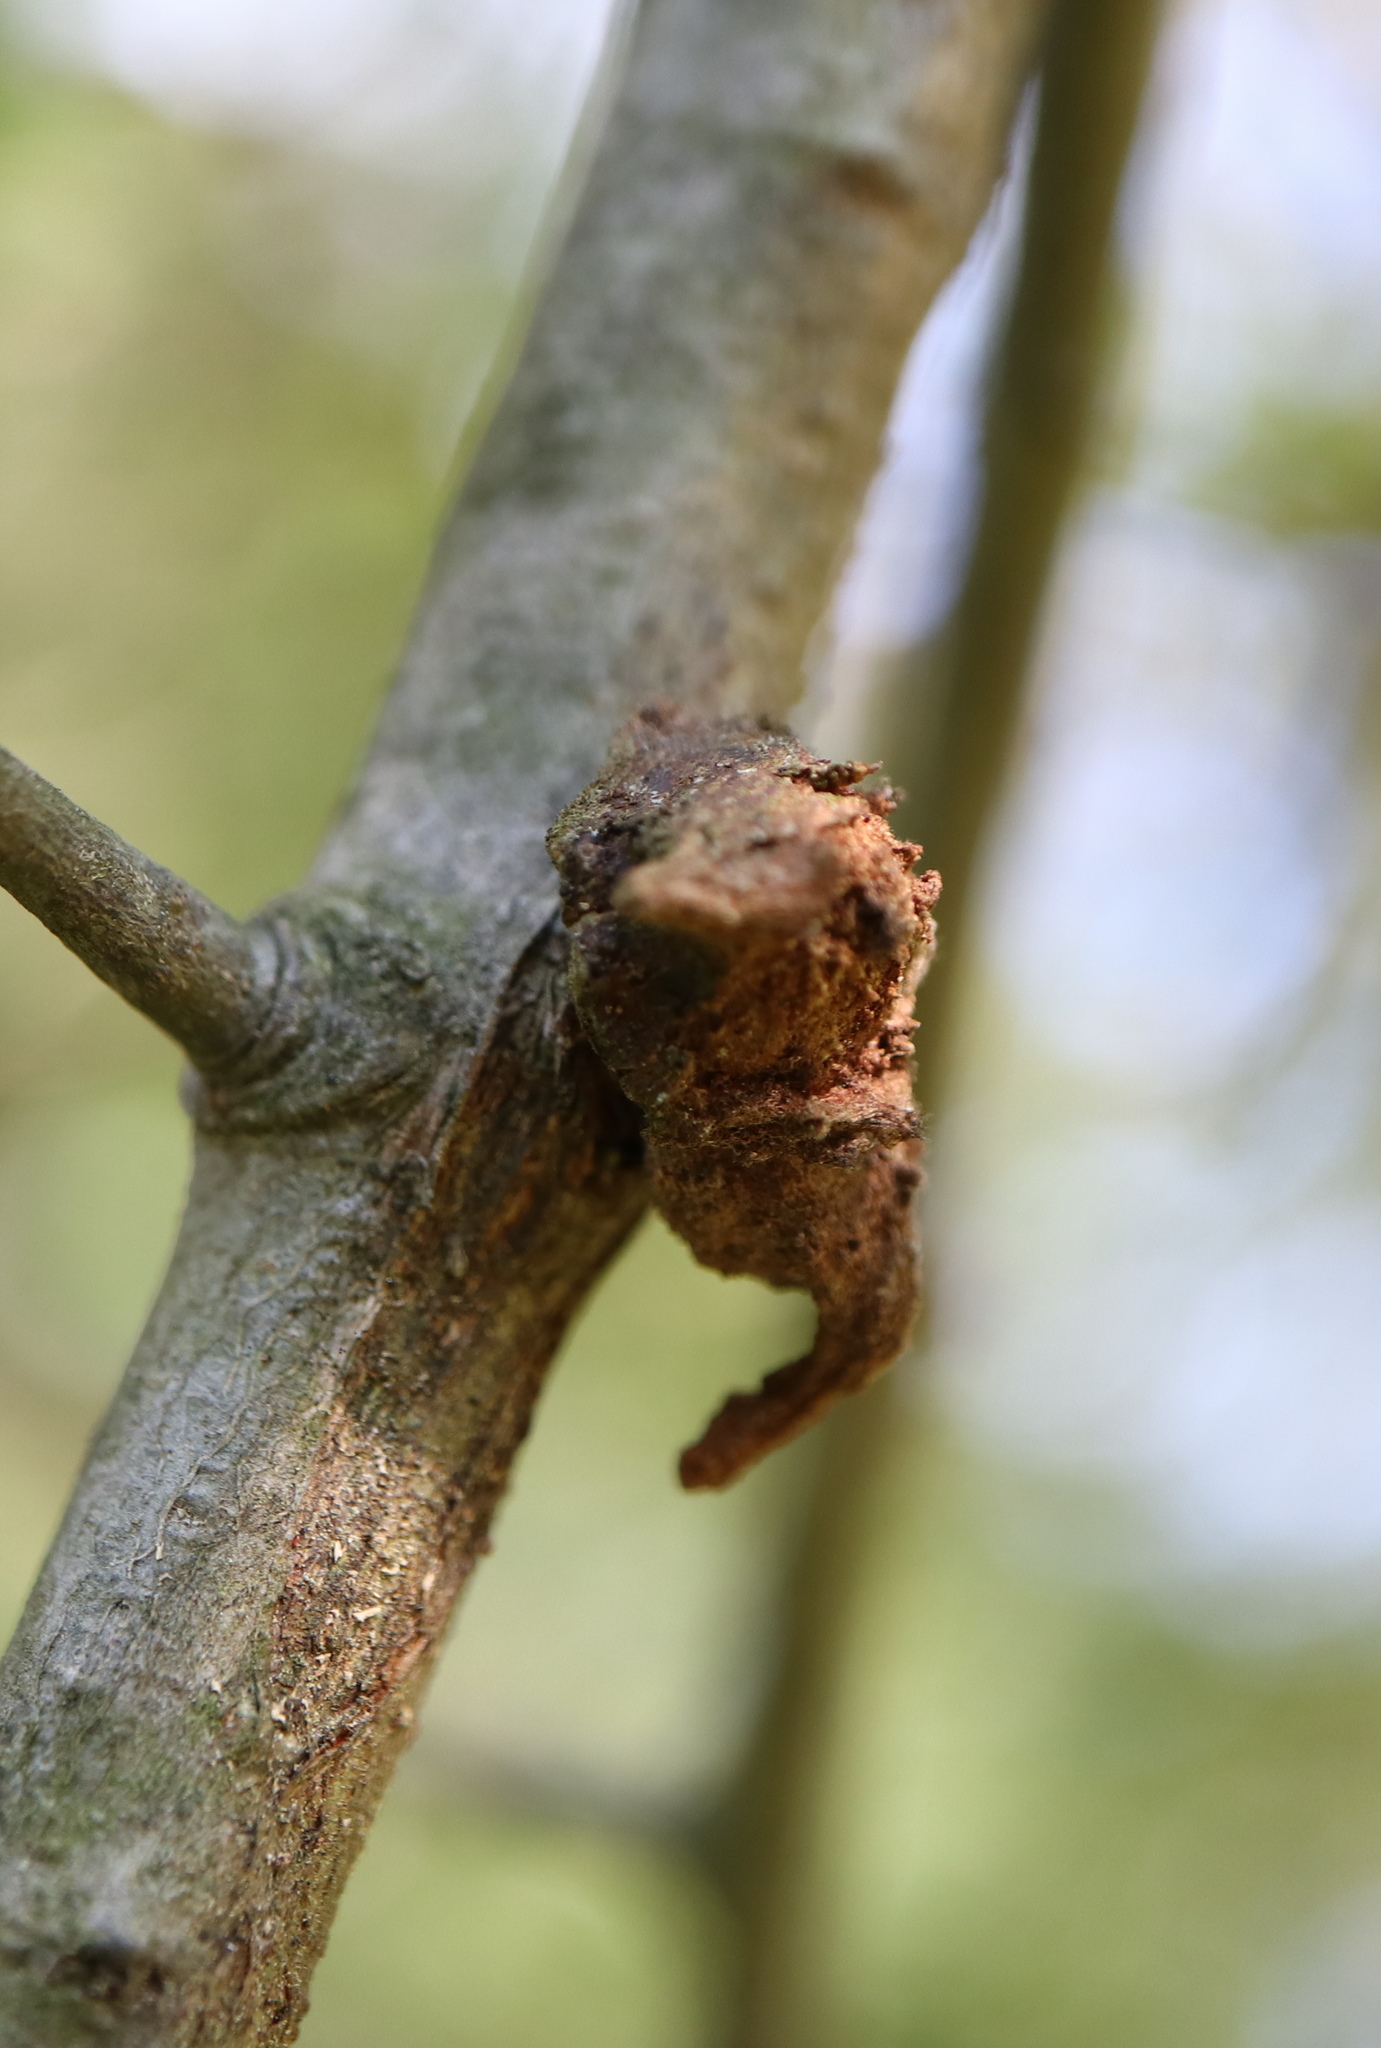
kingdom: Animalia
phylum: Arthropoda
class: Insecta
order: Hymenoptera
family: Cynipidae
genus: Callirhytis
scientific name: Callirhytis
